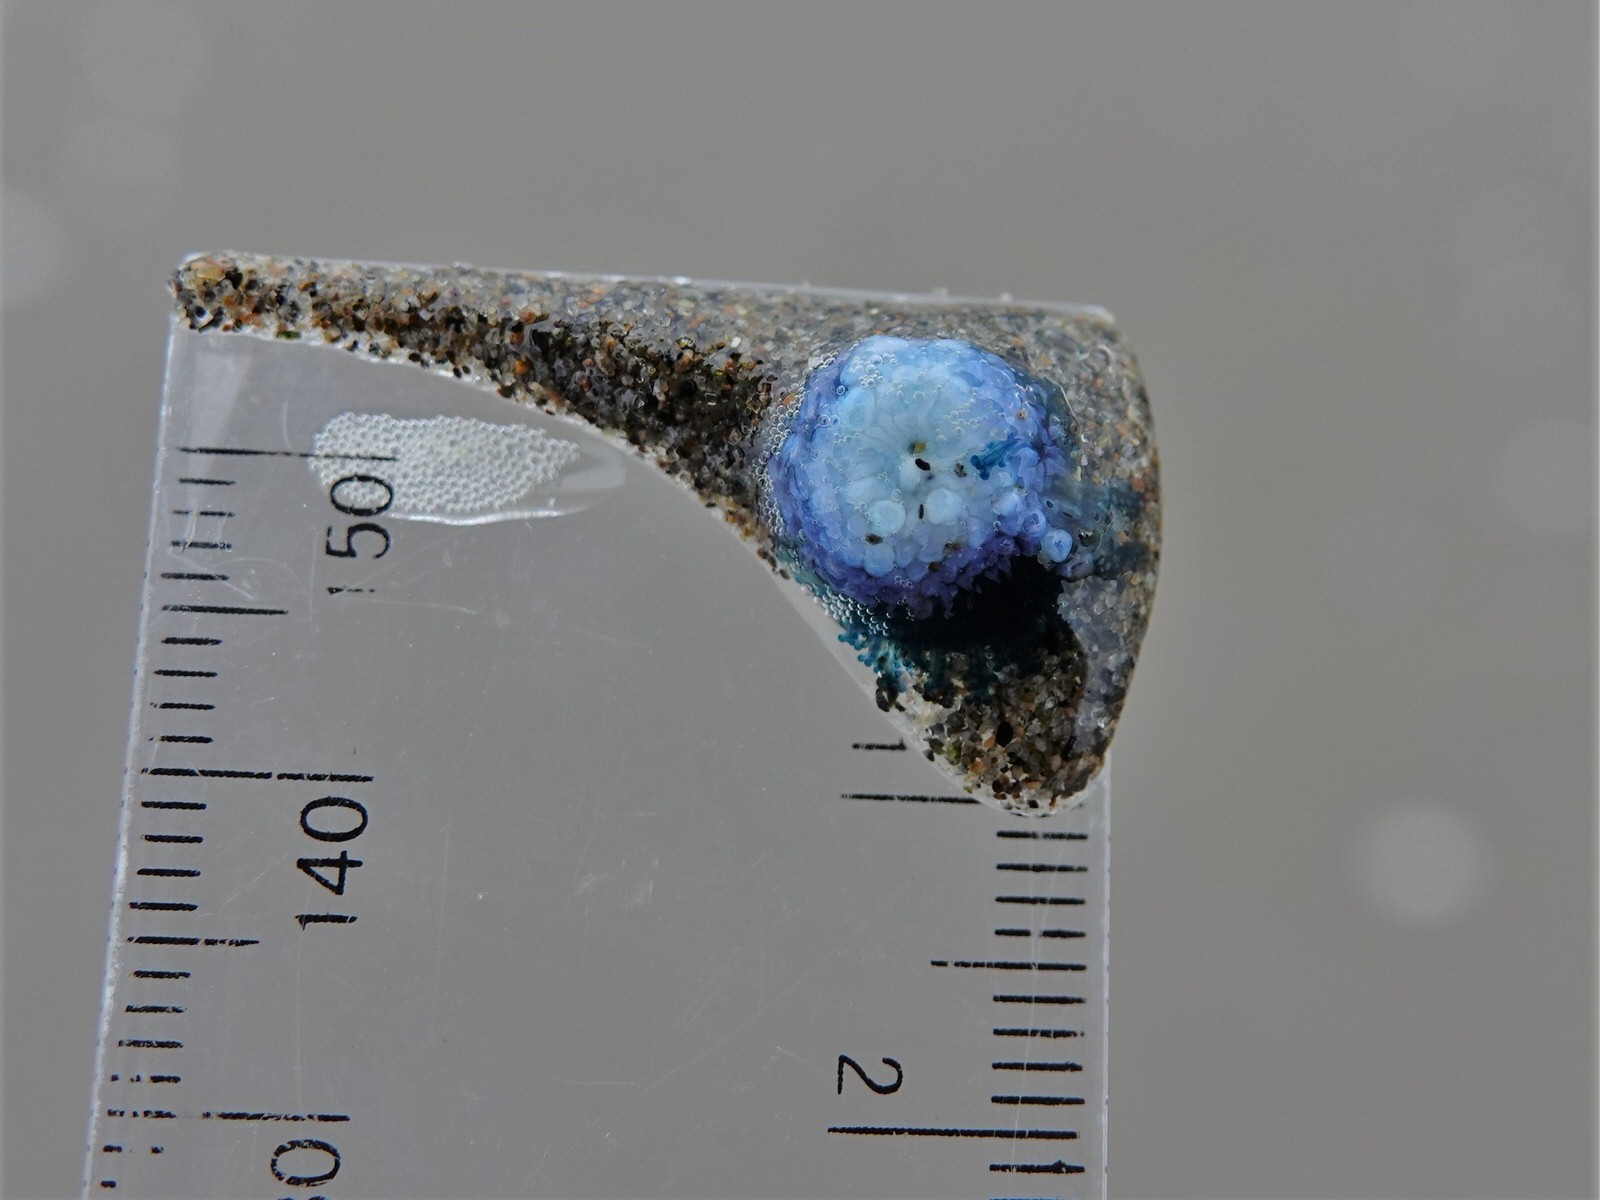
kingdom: Animalia
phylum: Cnidaria
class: Hydrozoa
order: Anthoathecata
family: Porpitidae
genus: Porpita
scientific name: Porpita porpita
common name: Blue button
